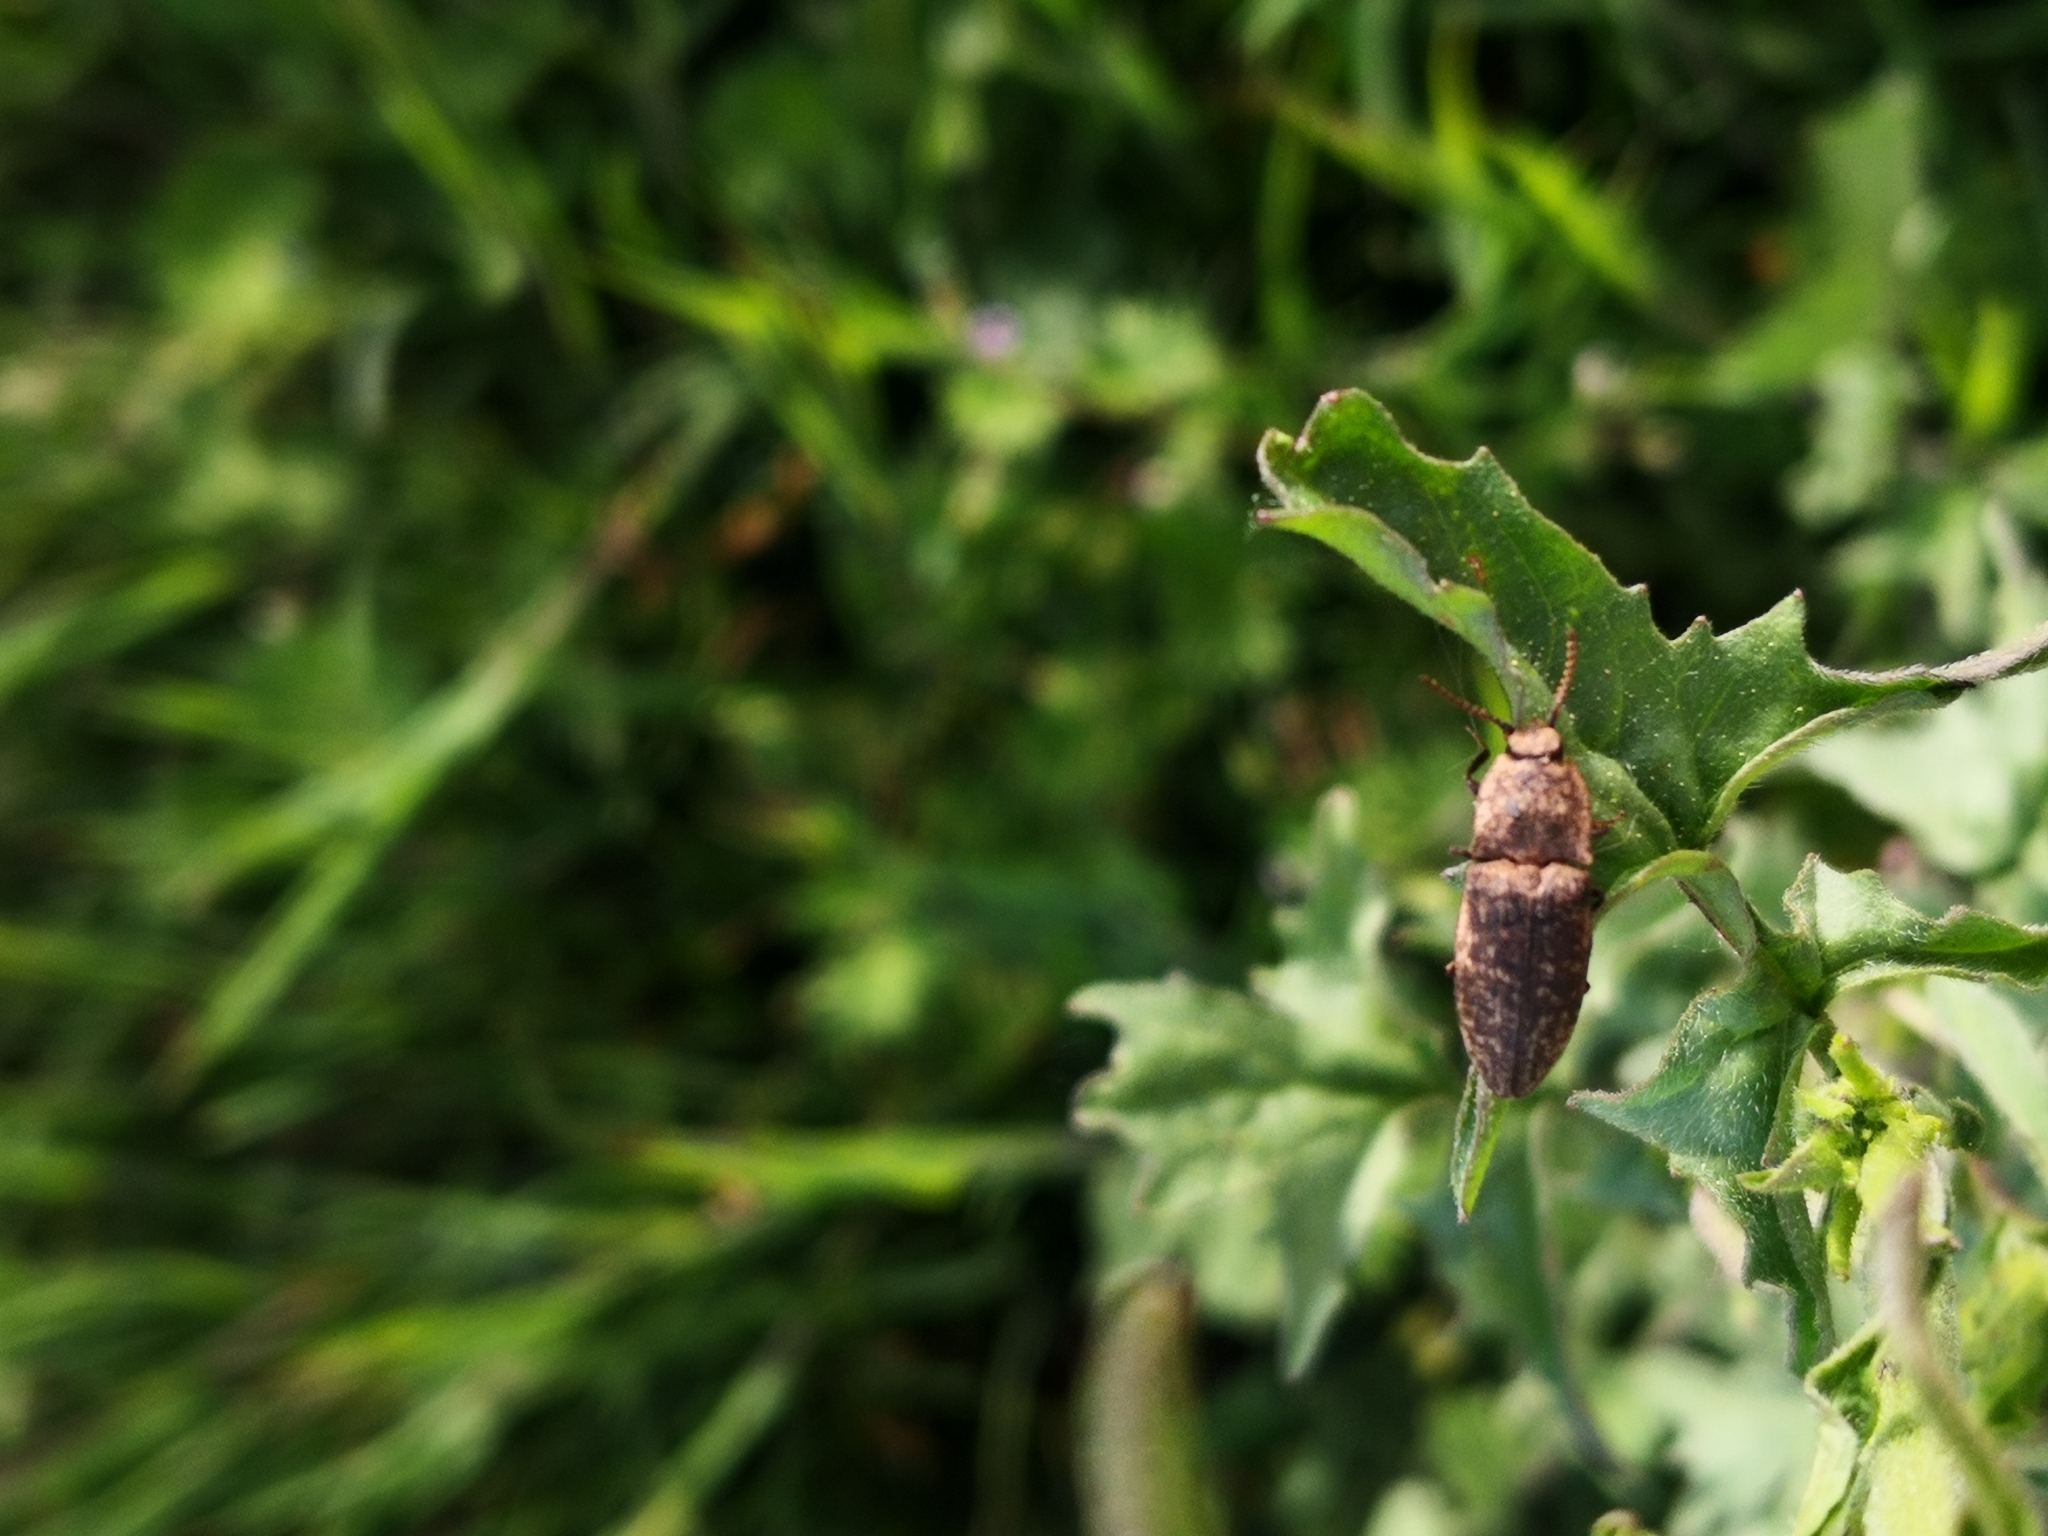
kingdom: Animalia
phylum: Arthropoda
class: Insecta
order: Coleoptera
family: Elateridae
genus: Agrypnus
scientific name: Agrypnus murinus
